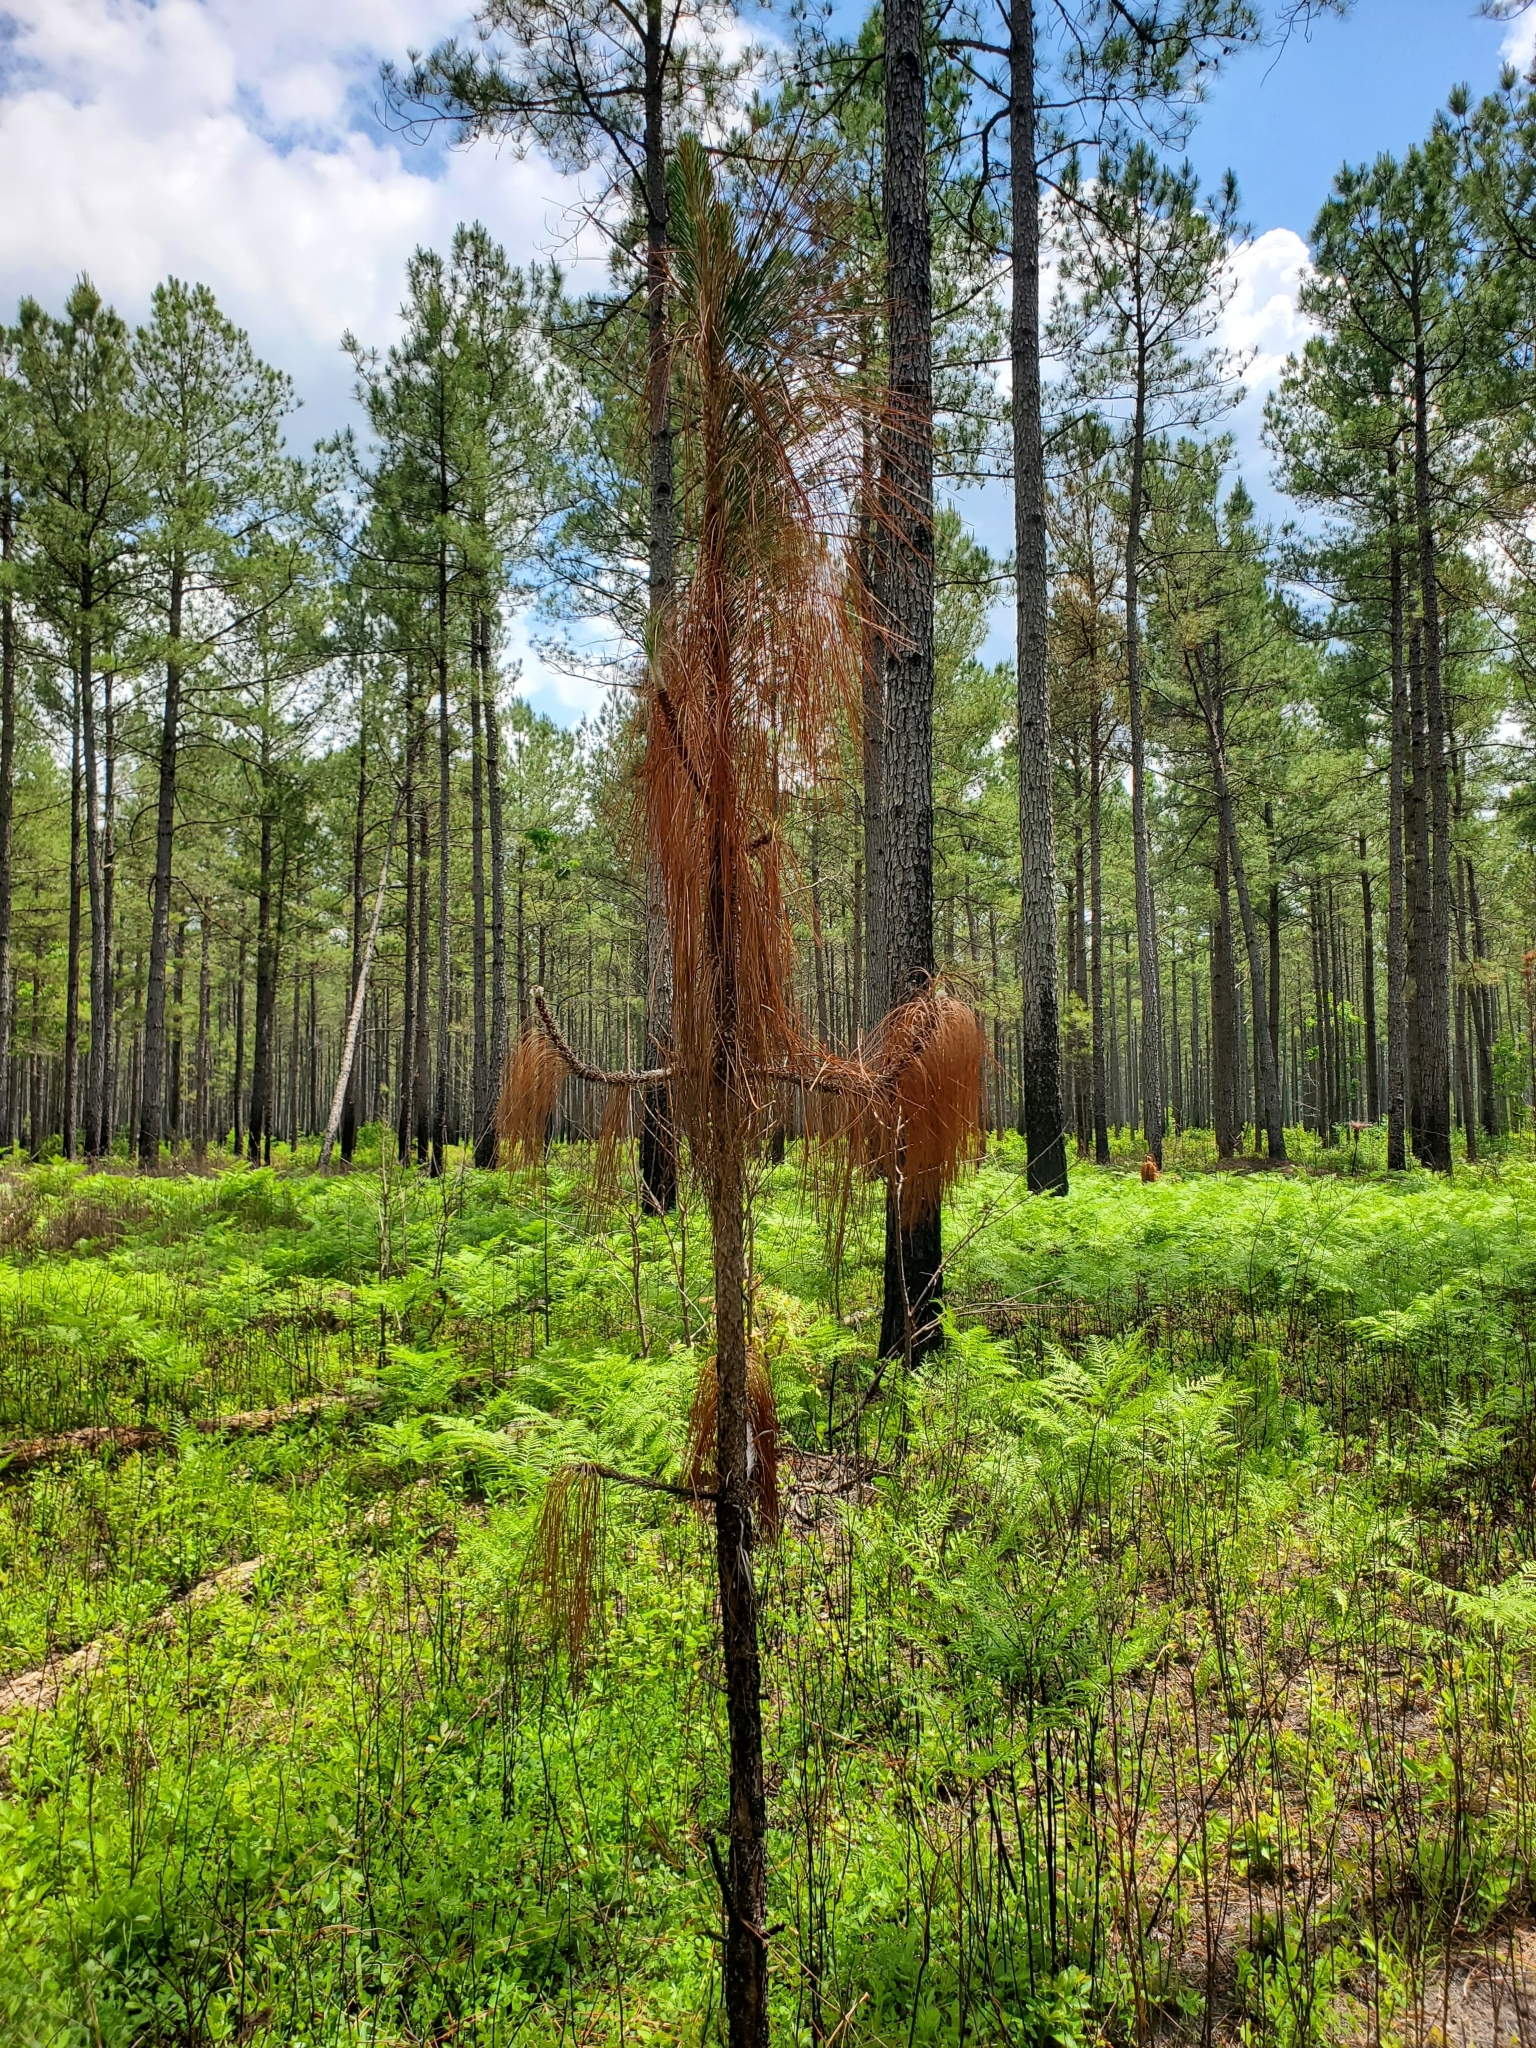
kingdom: Plantae
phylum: Tracheophyta
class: Pinopsida
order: Pinales
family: Pinaceae
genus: Pinus
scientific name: Pinus palustris
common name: Longleaf pine
